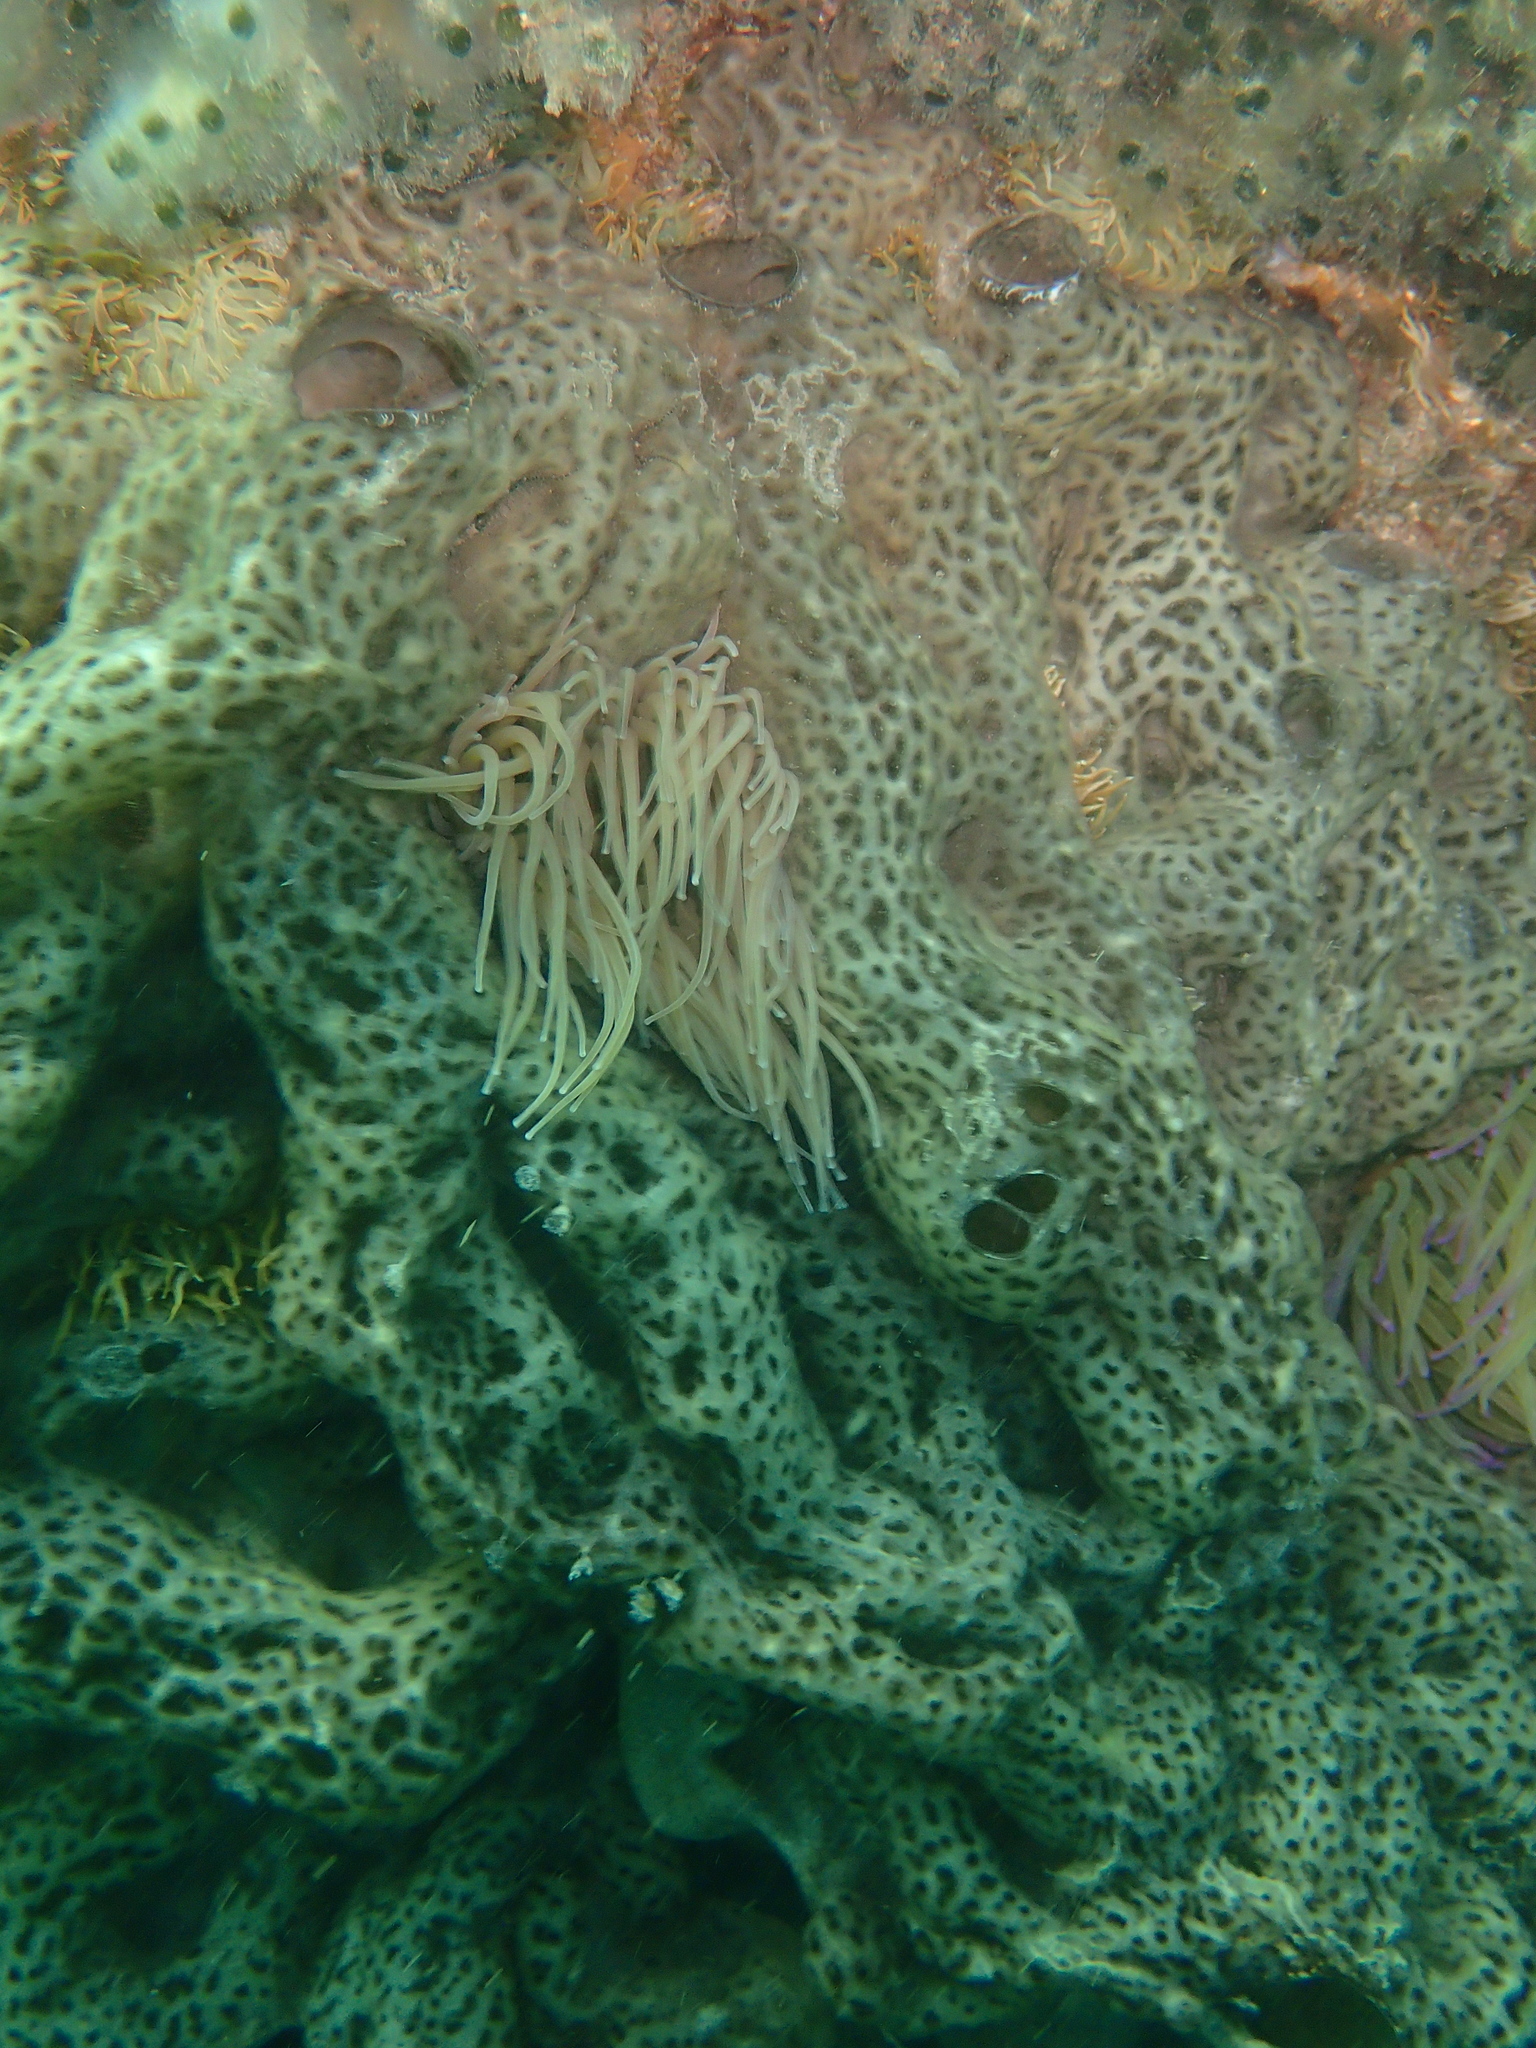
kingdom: Animalia
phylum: Chordata
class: Ascidiacea
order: Aplousobranchia
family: Didemnidae
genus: Didemnum
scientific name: Didemnum coriaceum
